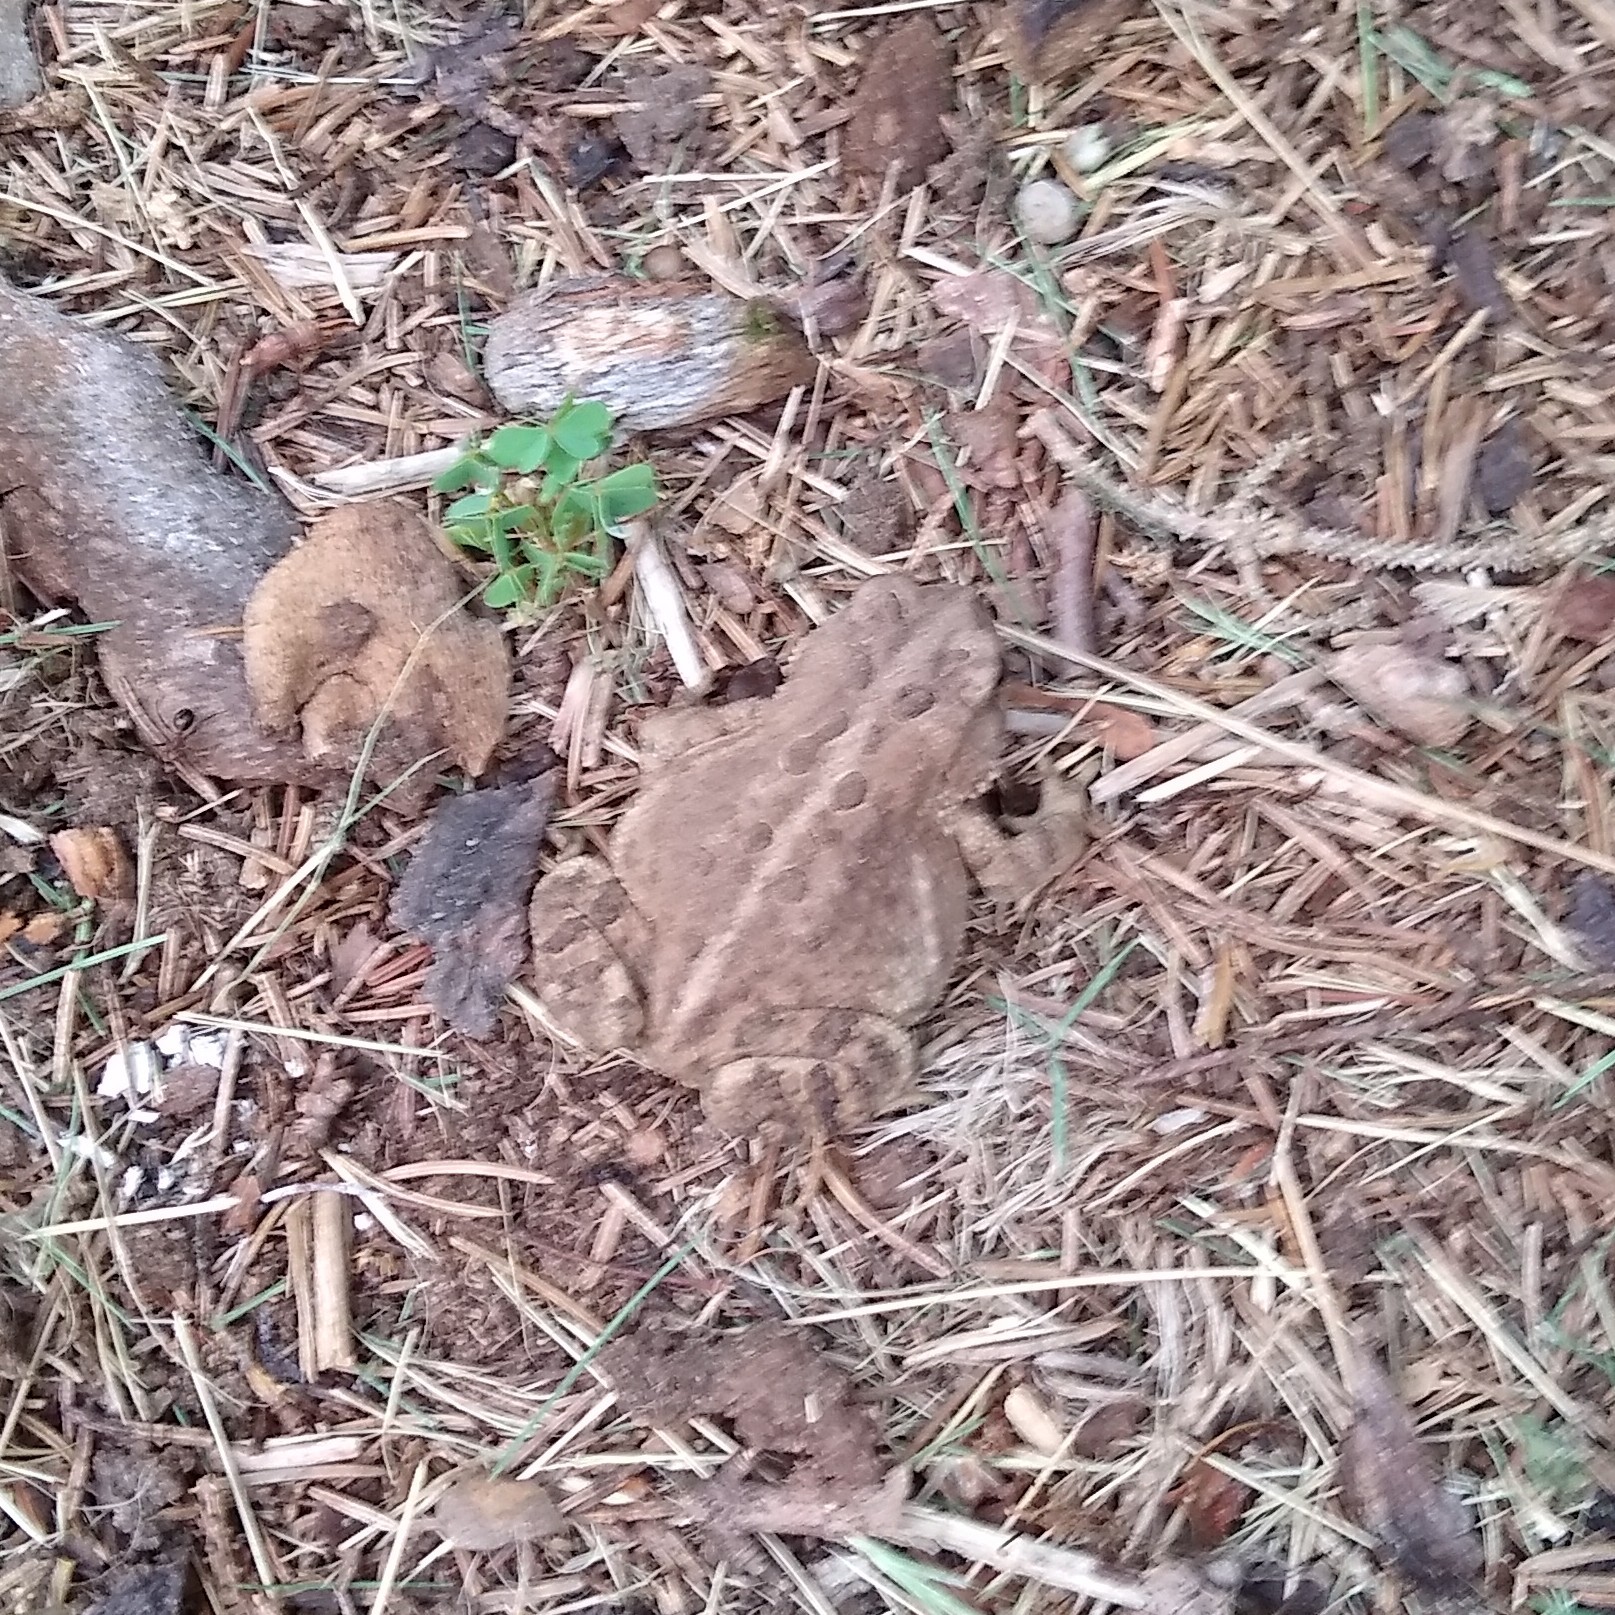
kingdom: Animalia
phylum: Chordata
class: Amphibia
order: Anura
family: Bufonidae
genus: Anaxyrus
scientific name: Anaxyrus americanus
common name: American toad
